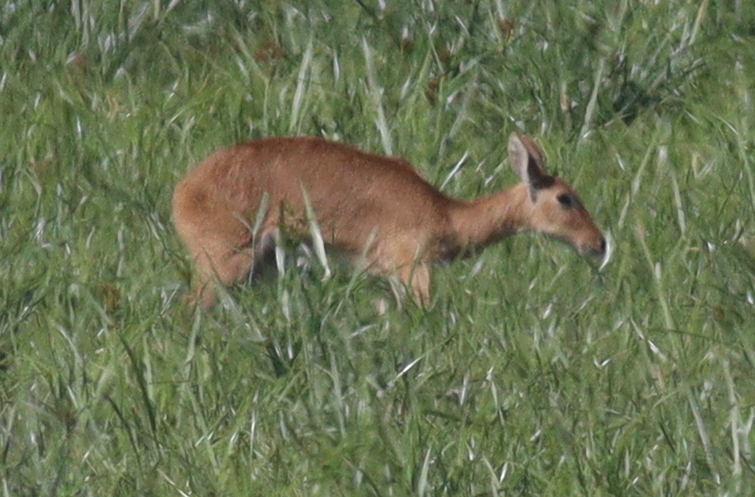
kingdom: Animalia
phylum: Chordata
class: Mammalia
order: Artiodactyla
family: Bovidae
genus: Redunca
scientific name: Redunca redunca
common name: Common reedbuck
